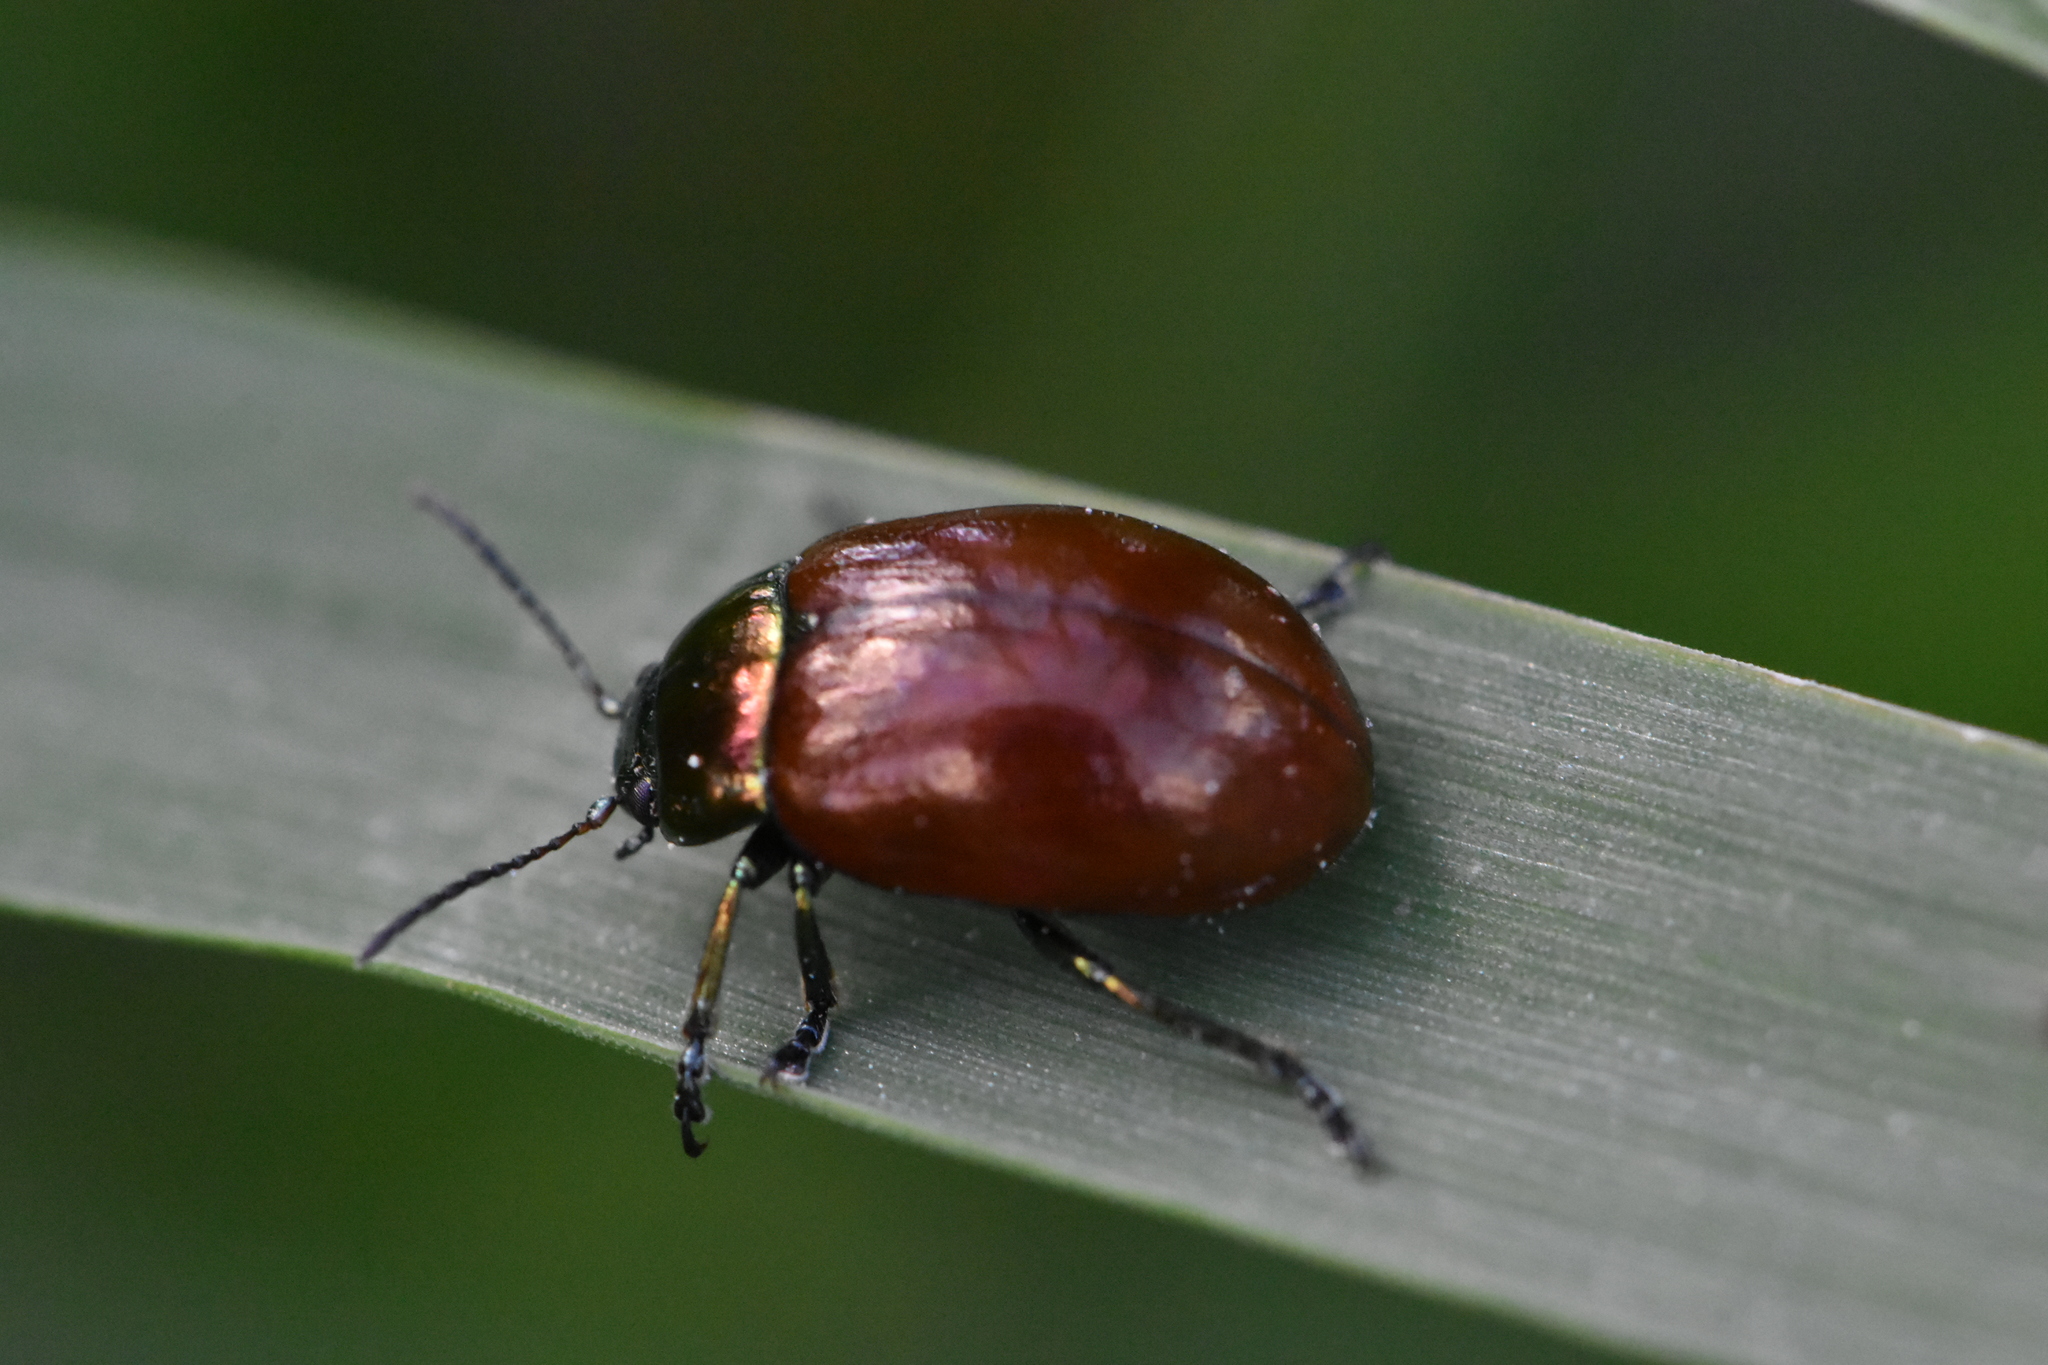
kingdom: Animalia
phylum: Arthropoda
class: Insecta
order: Coleoptera
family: Chrysomelidae
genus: Chrysomela
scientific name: Chrysomela polita
